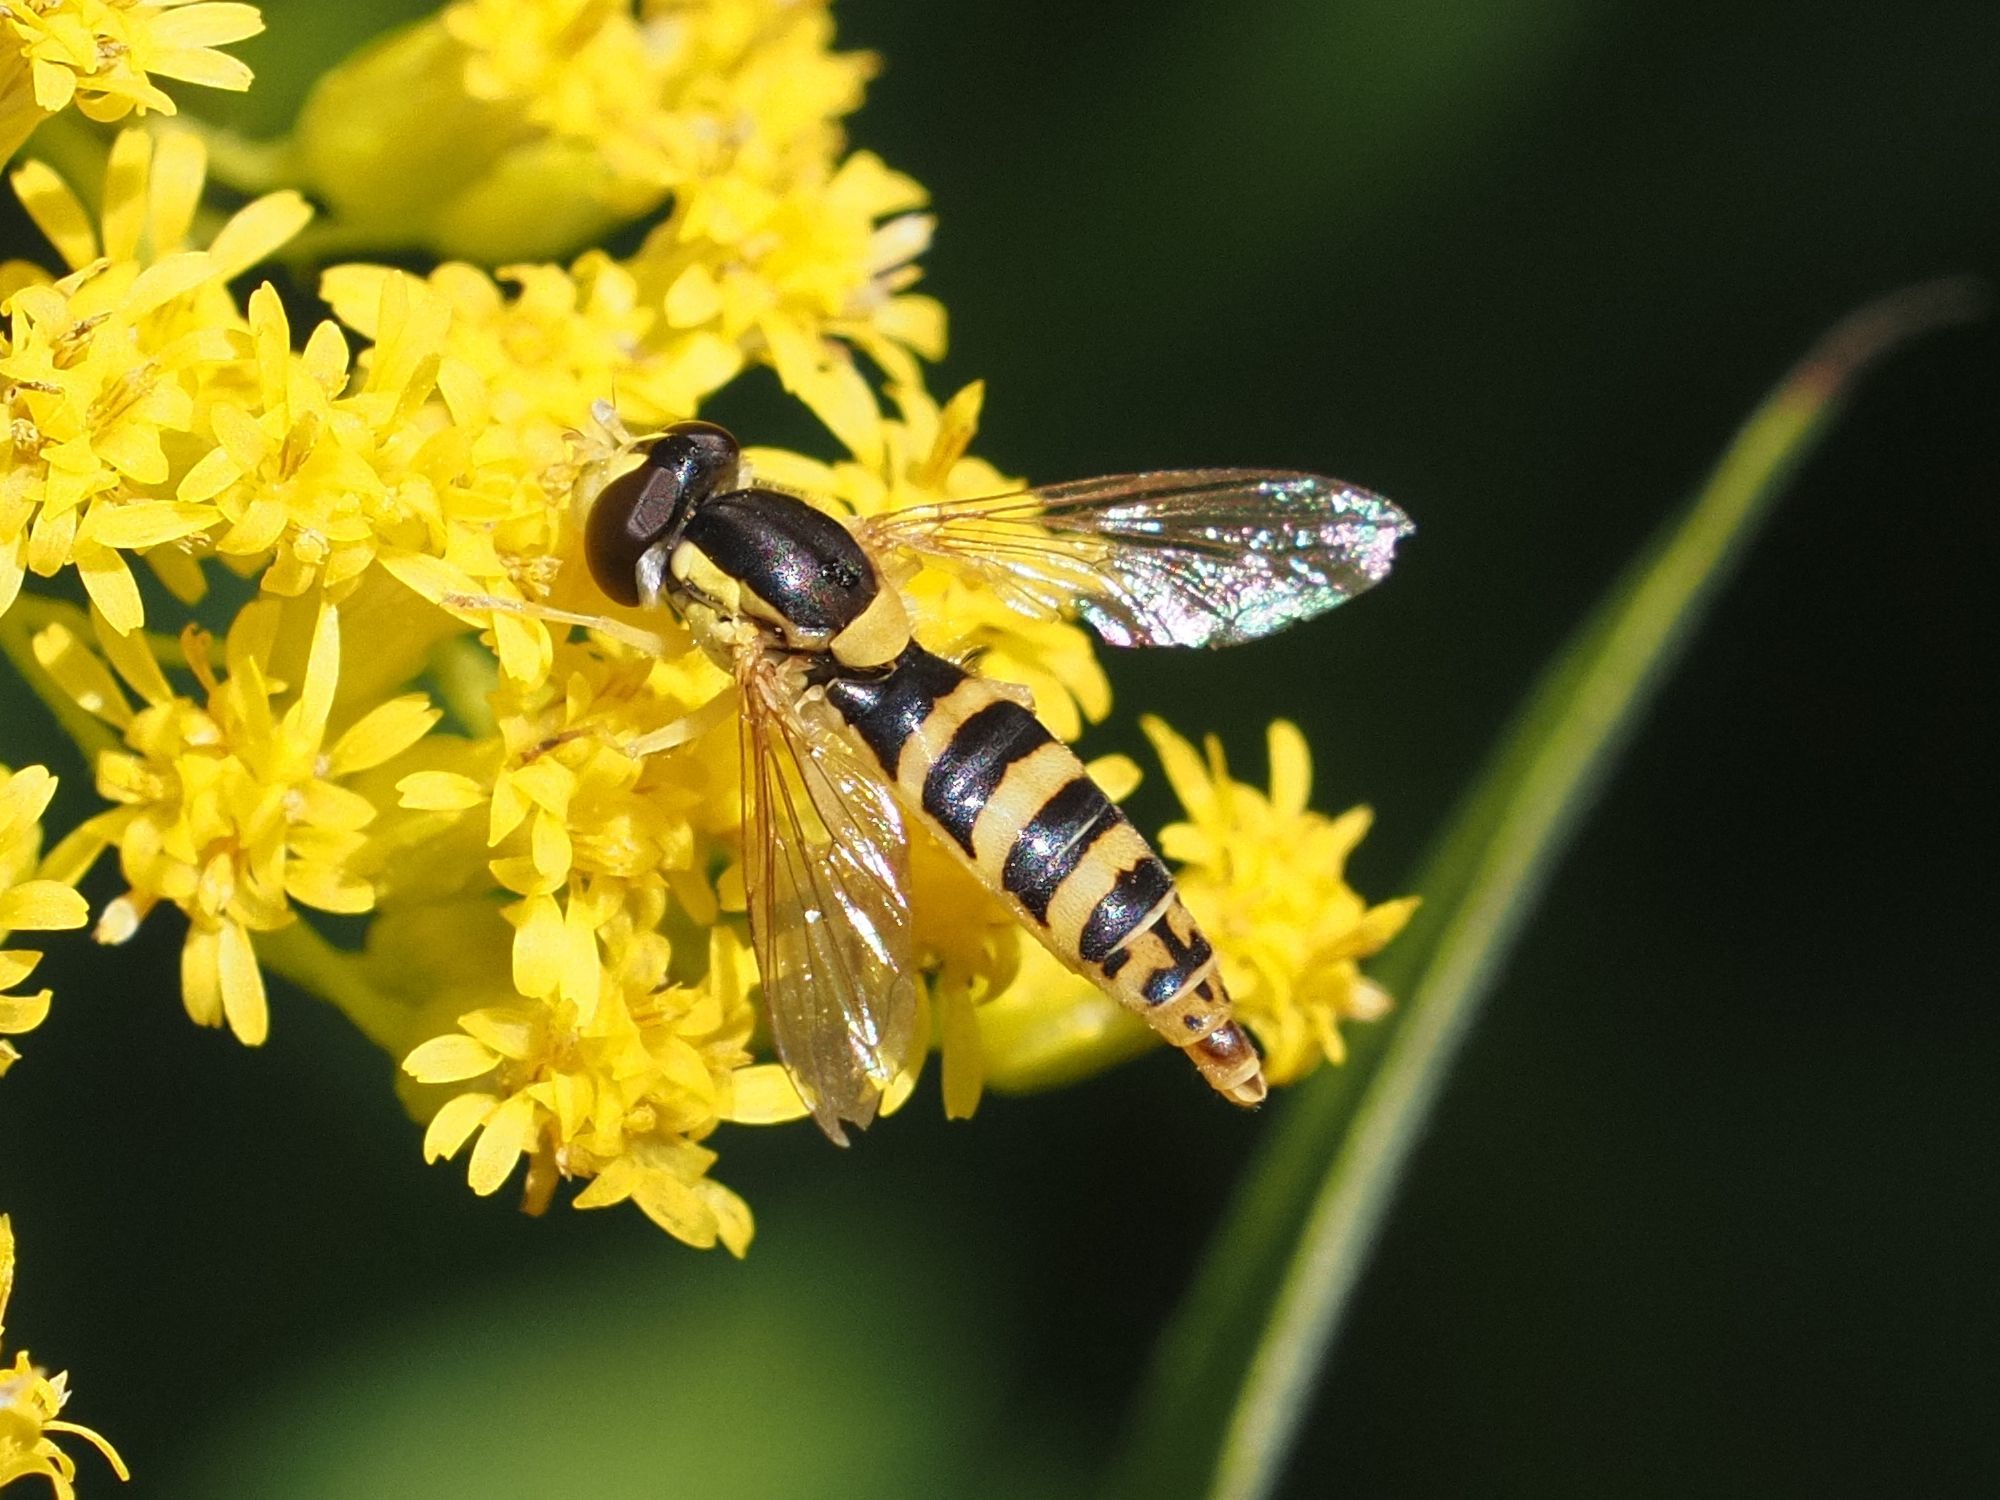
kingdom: Animalia
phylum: Arthropoda
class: Insecta
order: Diptera
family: Syrphidae
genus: Sphaerophoria
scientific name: Sphaerophoria
